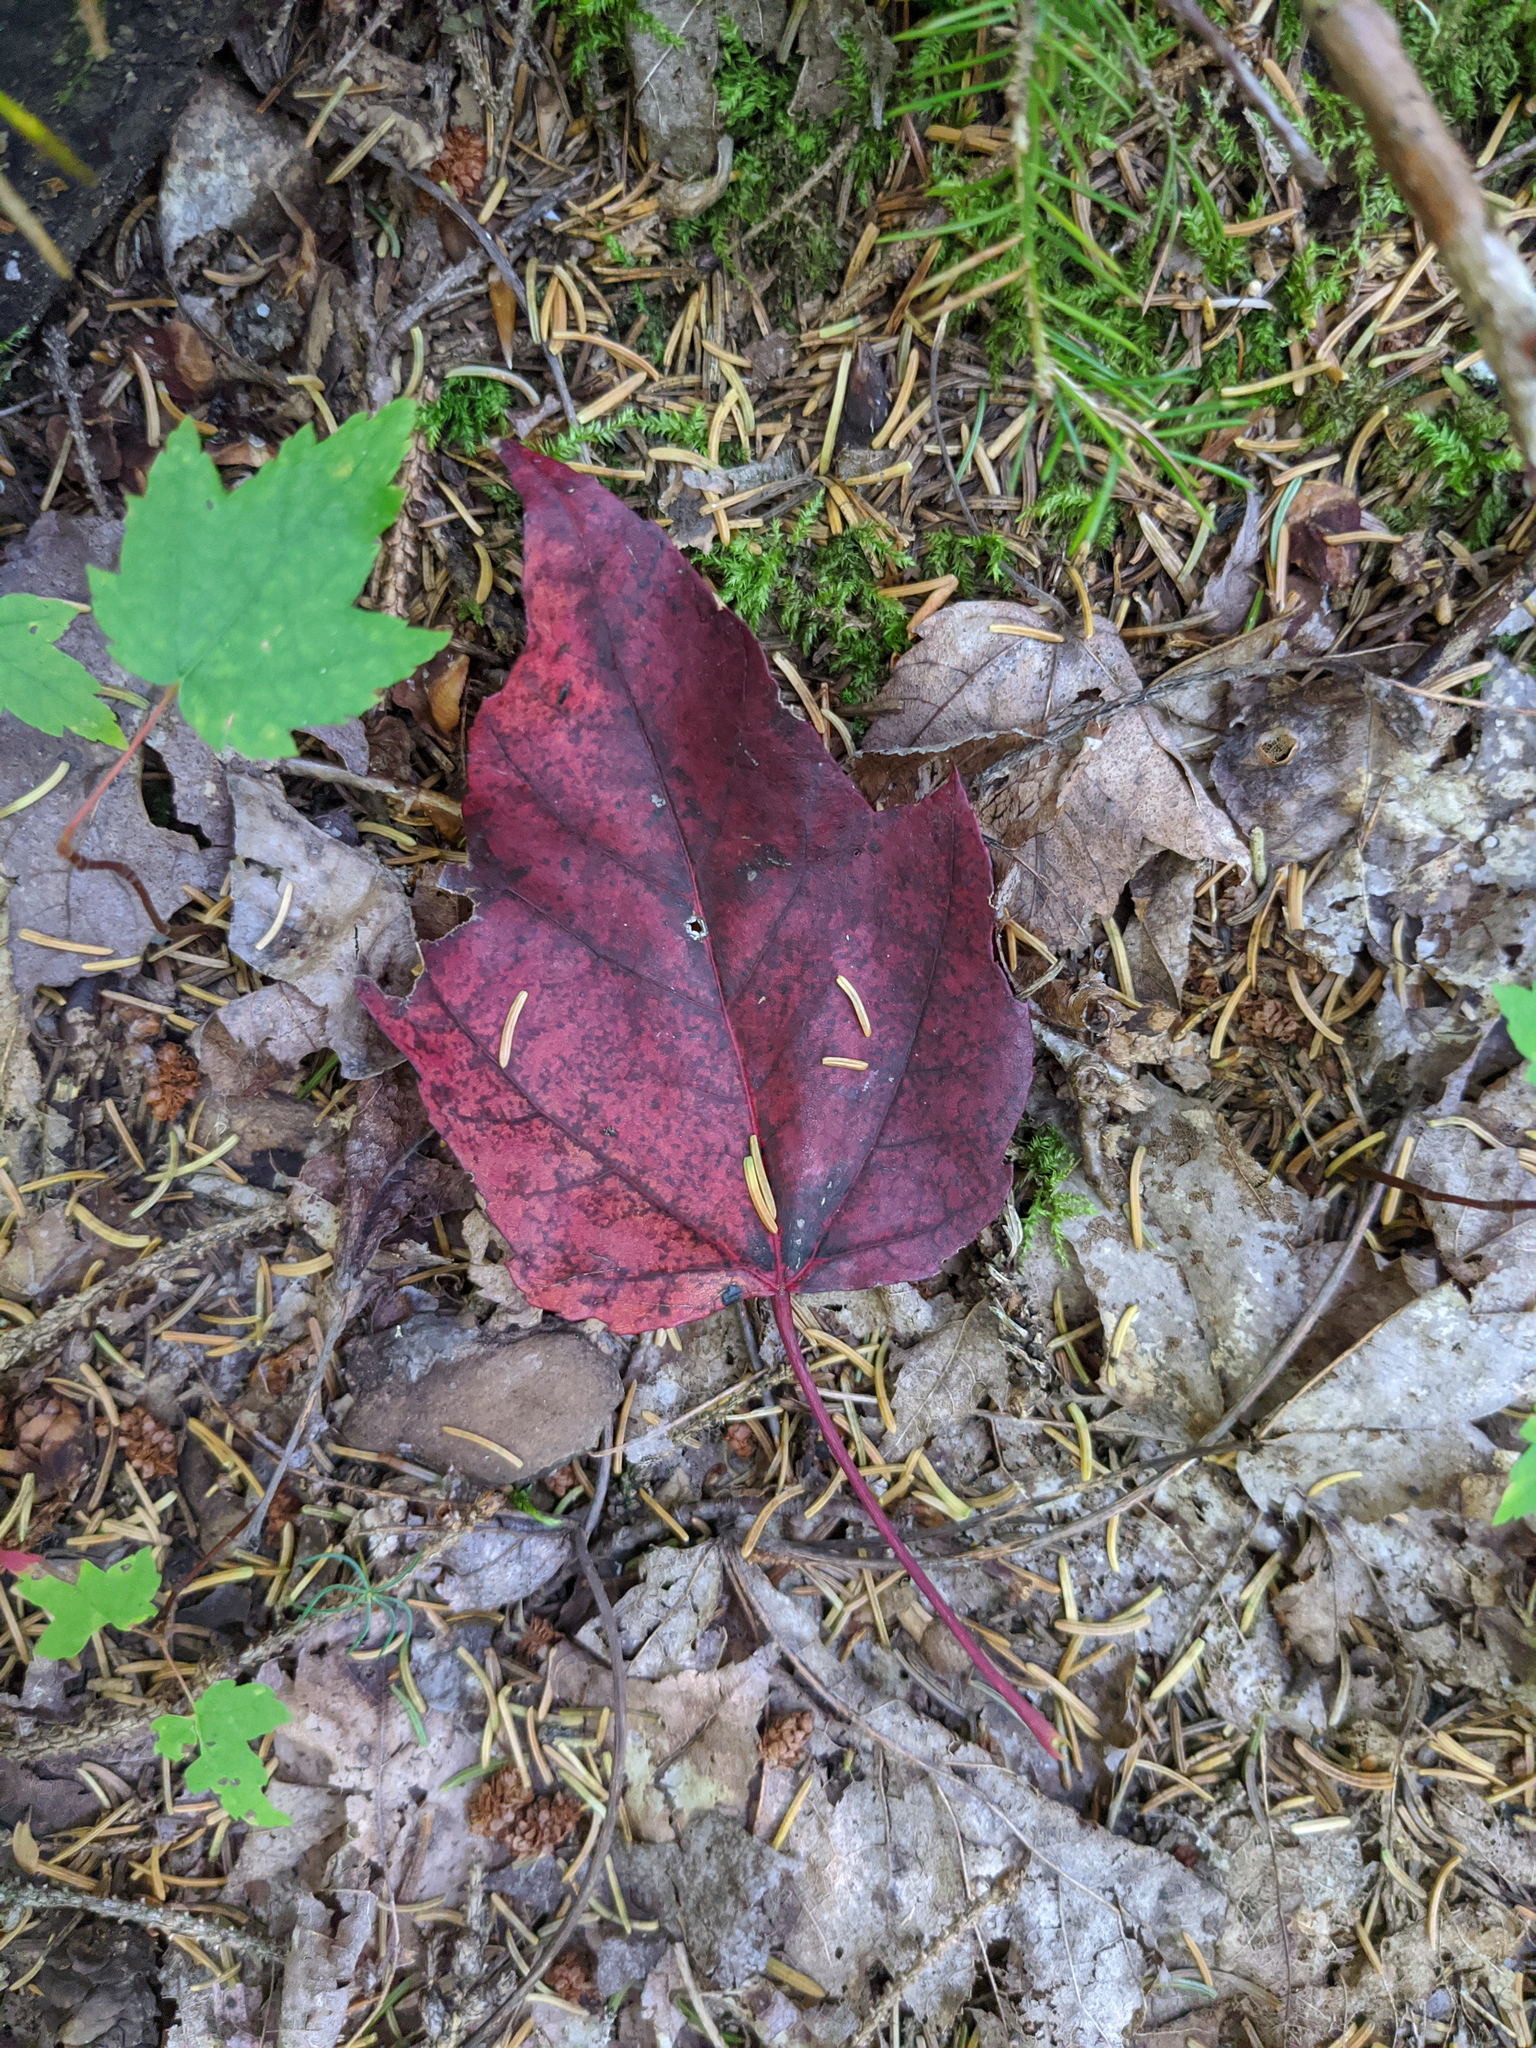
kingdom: Plantae
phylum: Tracheophyta
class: Magnoliopsida
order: Sapindales
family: Sapindaceae
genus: Acer
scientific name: Acer rubrum
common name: Red maple
